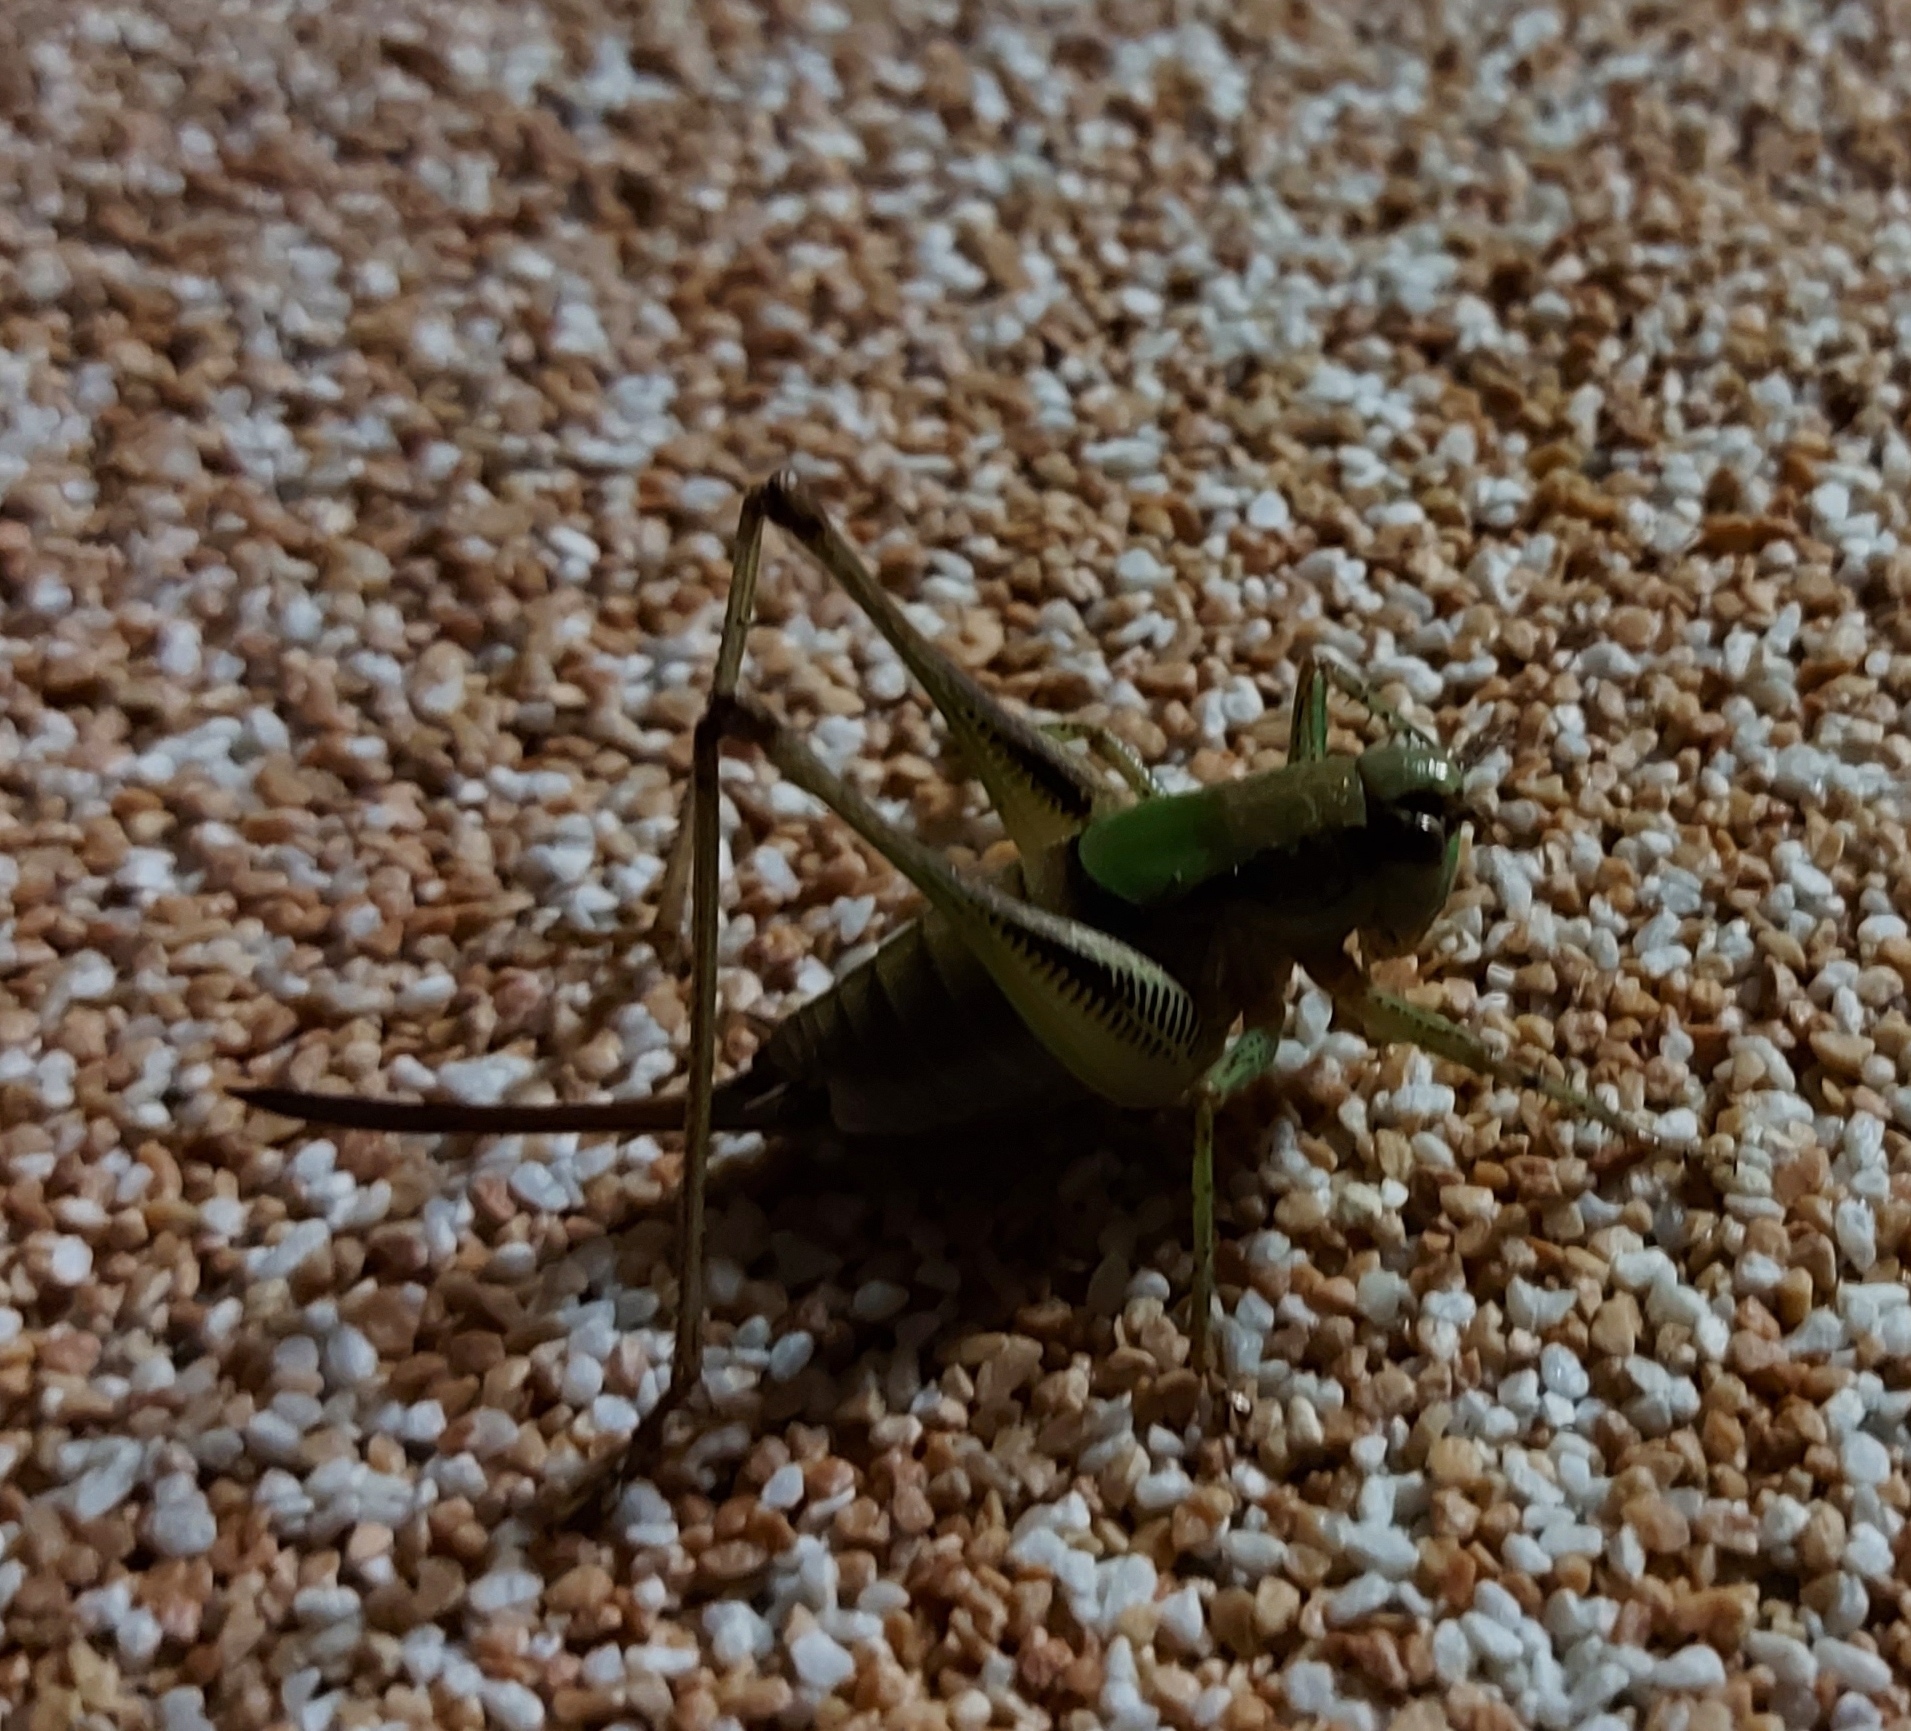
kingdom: Animalia
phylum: Arthropoda
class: Insecta
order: Orthoptera
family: Tettigoniidae
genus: Eupholidoptera
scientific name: Eupholidoptera schmidti
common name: Schmidt's marbled bush-cricket
